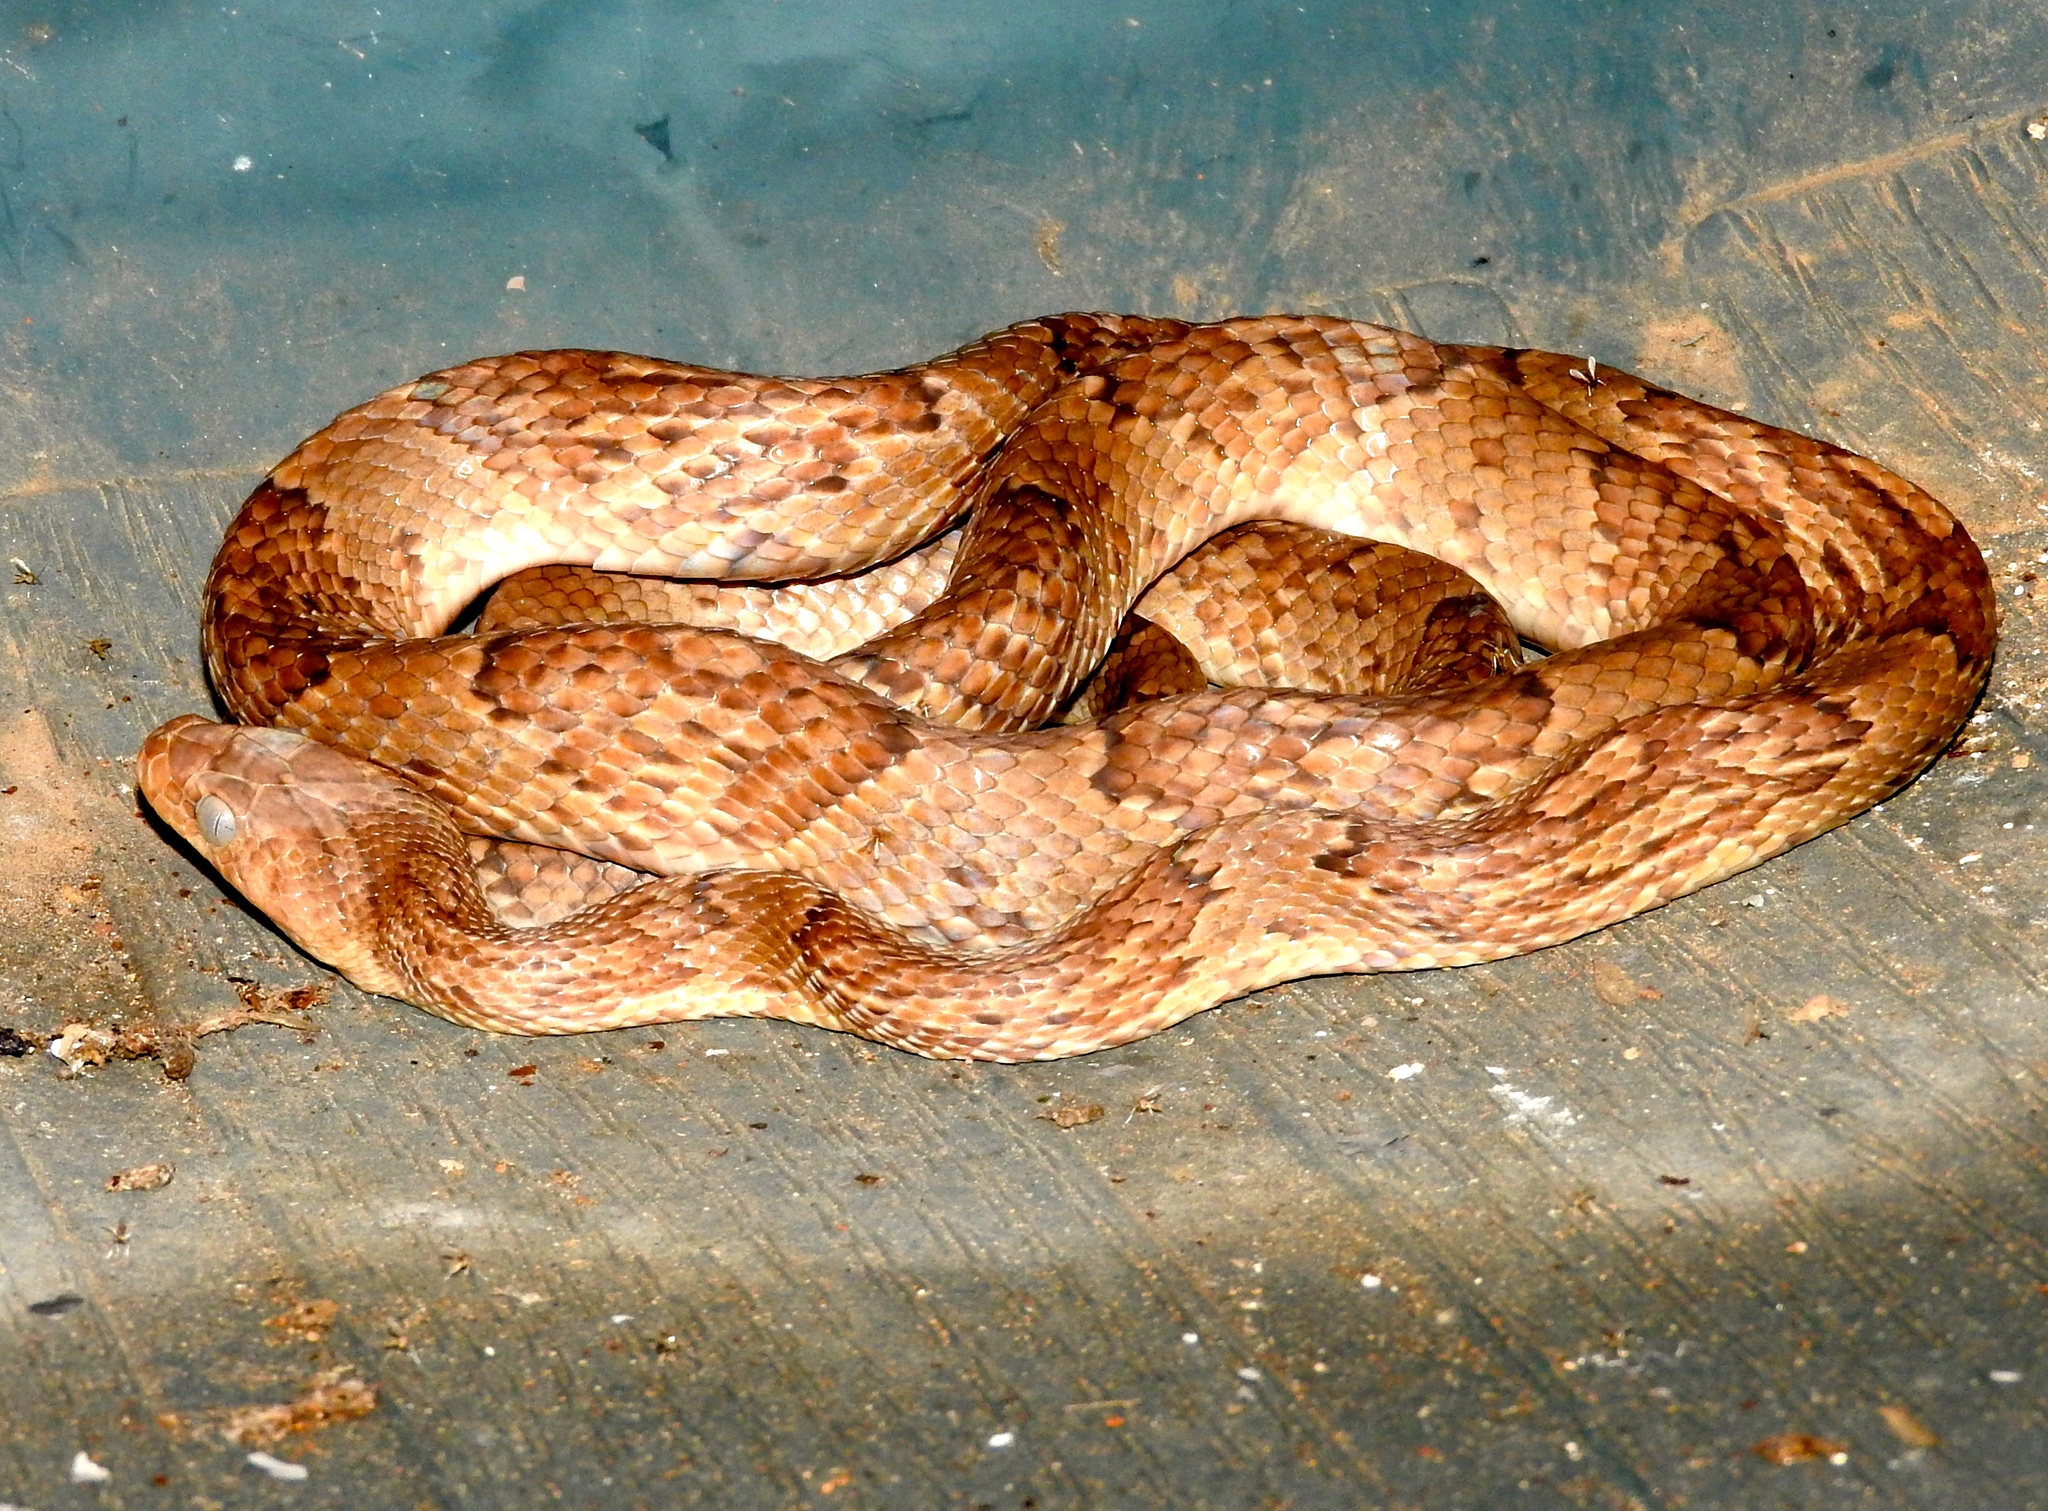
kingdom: Animalia
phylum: Chordata
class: Squamata
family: Colubridae
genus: Trimorphodon
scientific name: Trimorphodon paucimaculatus
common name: Sinaloan lyresnake
